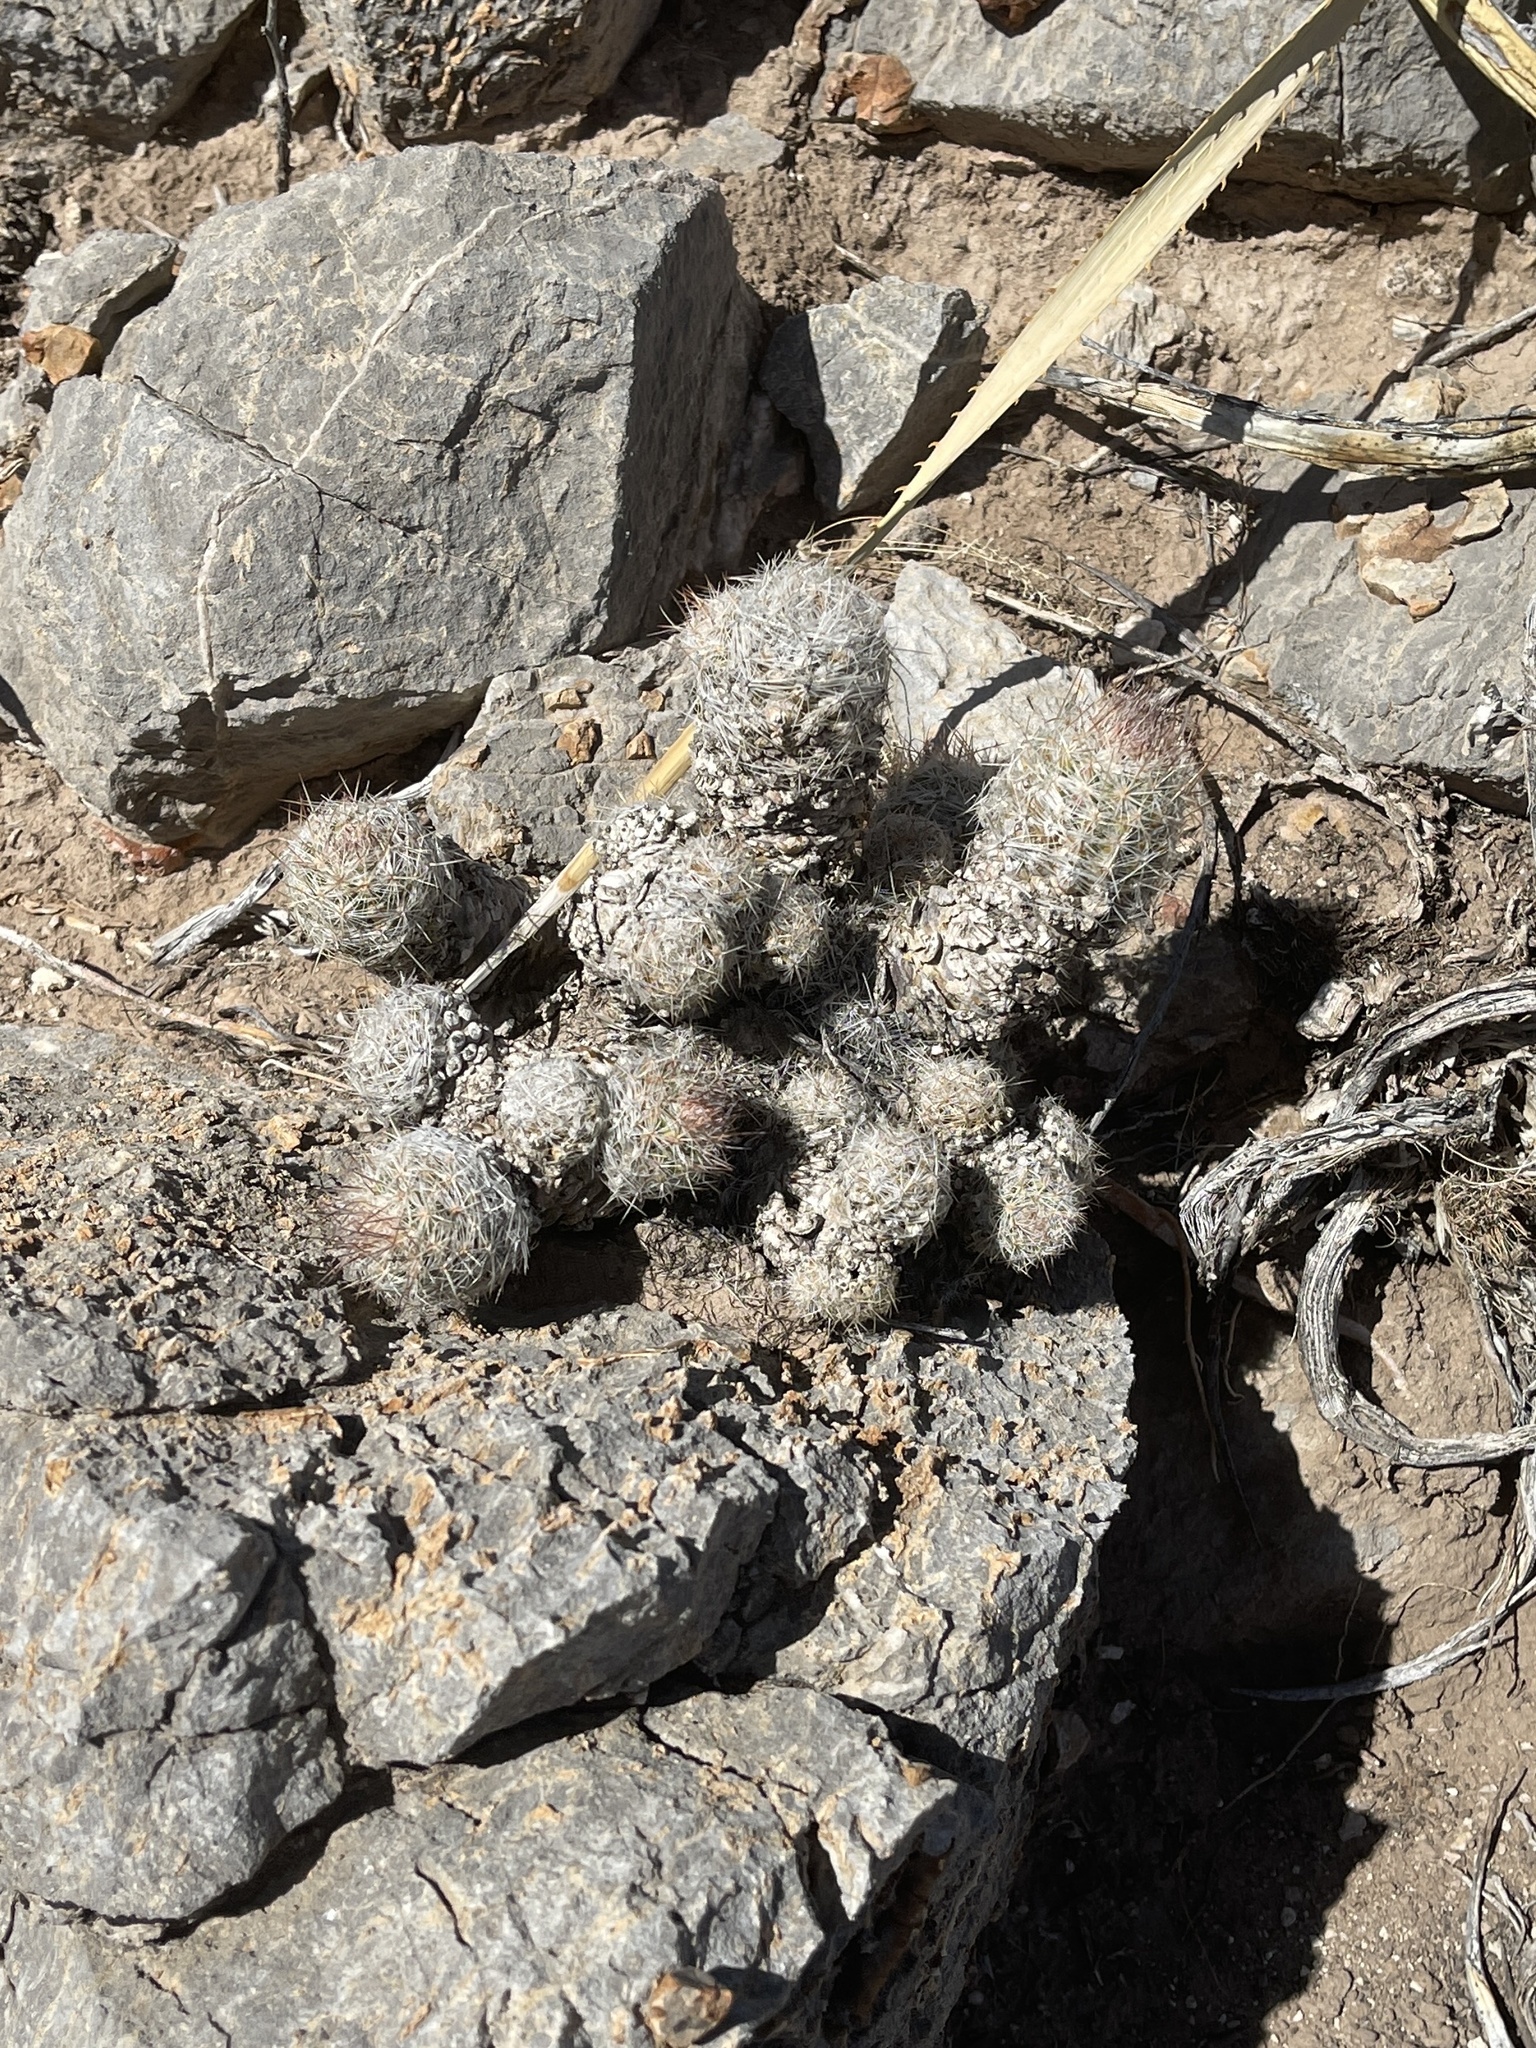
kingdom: Plantae
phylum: Tracheophyta
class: Magnoliopsida
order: Caryophyllales
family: Cactaceae
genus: Pelecyphora
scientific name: Pelecyphora tuberculosa
